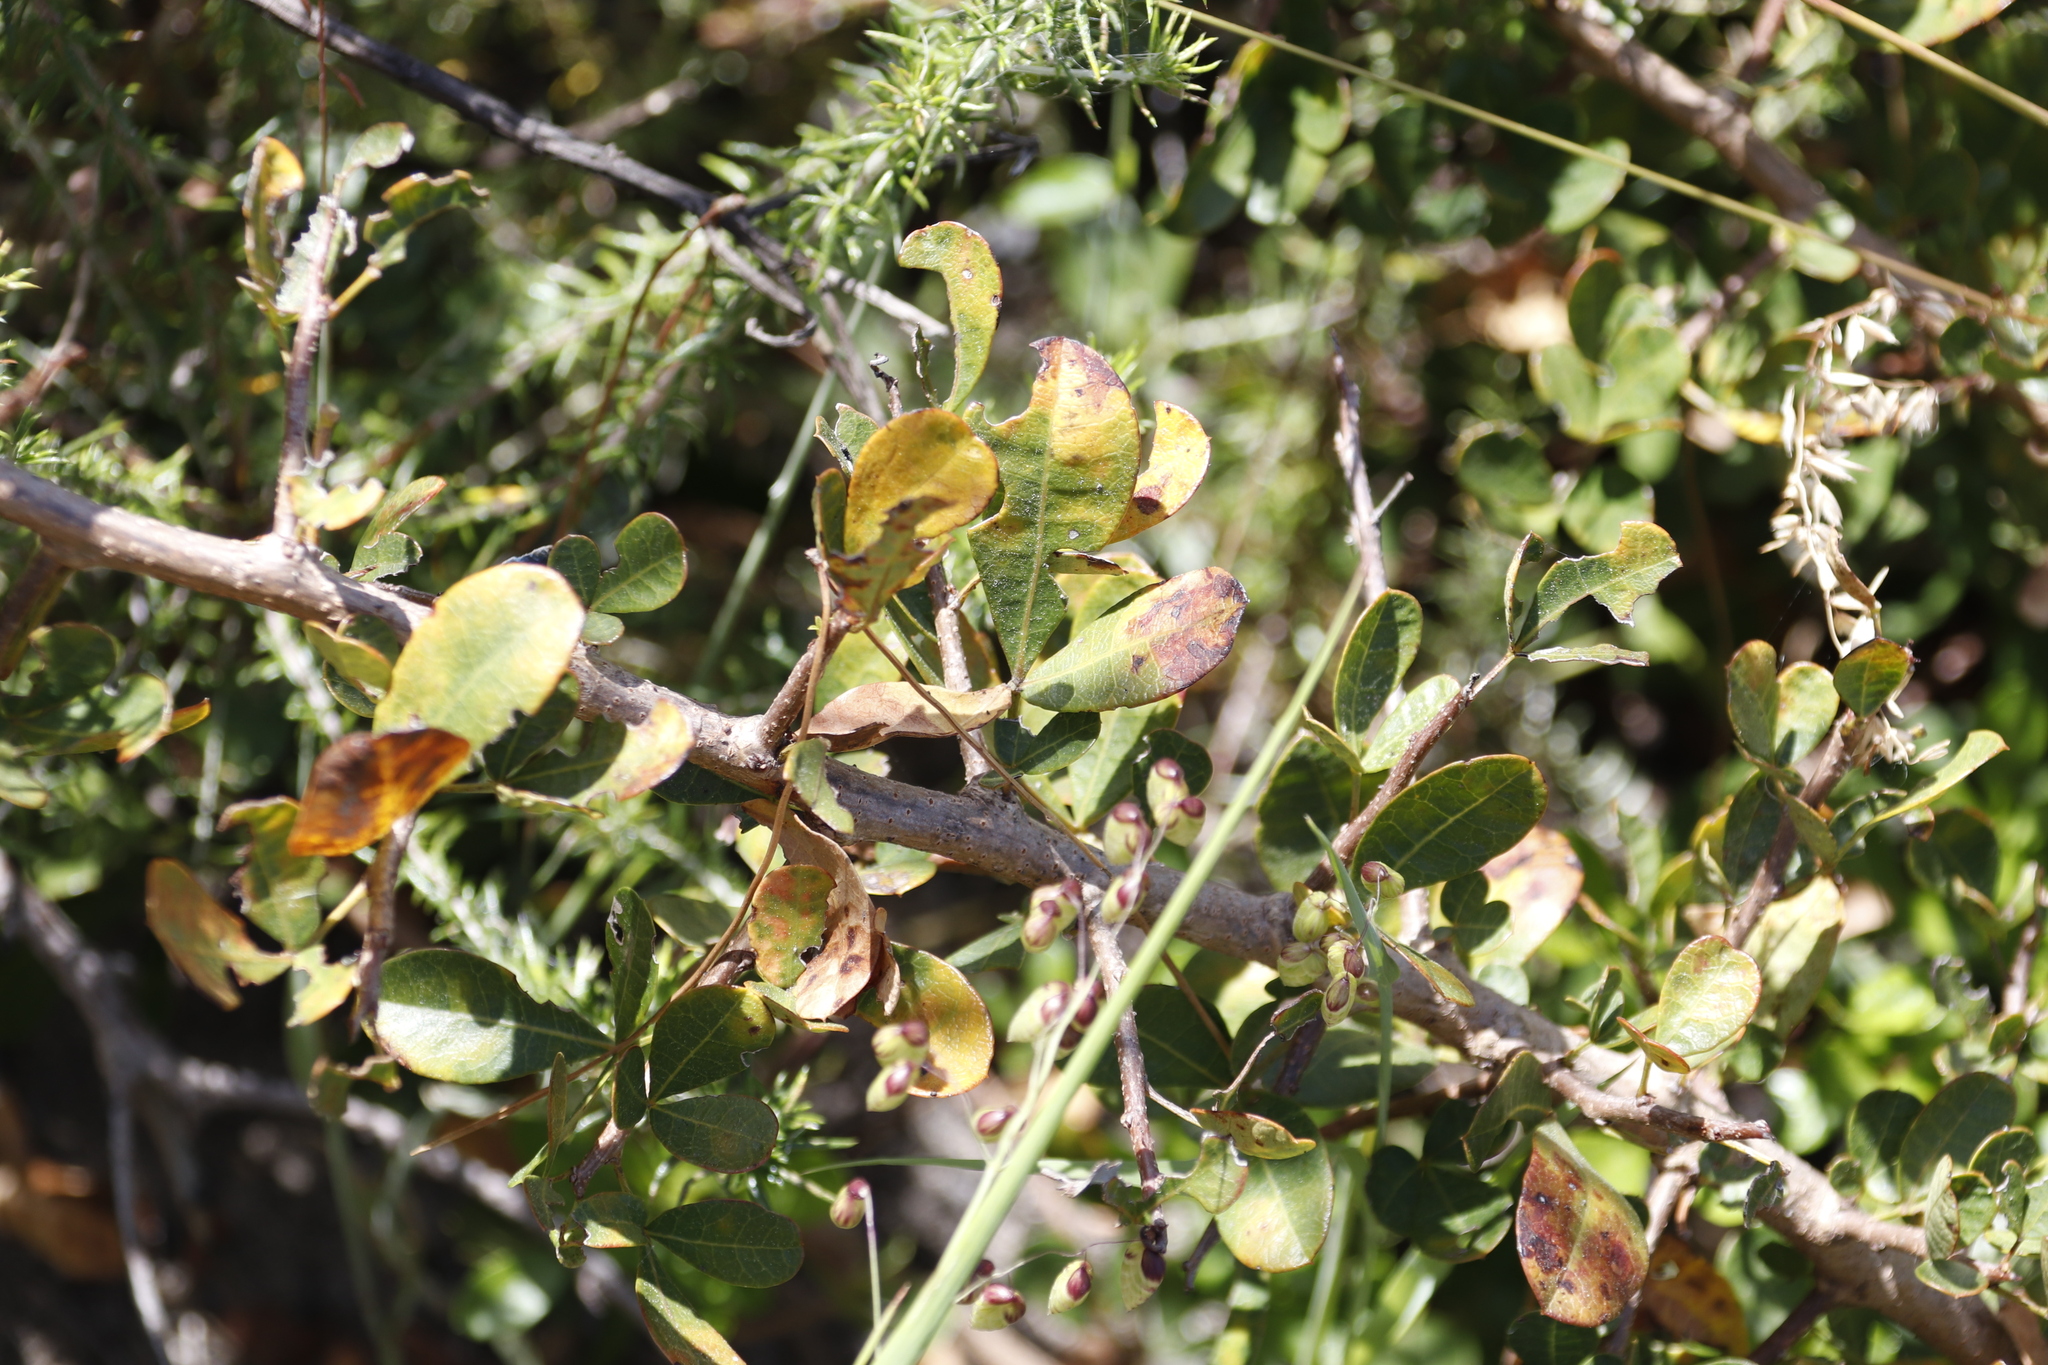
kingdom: Plantae
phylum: Tracheophyta
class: Magnoliopsida
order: Sapindales
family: Anacardiaceae
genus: Searsia
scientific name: Searsia laevigata
